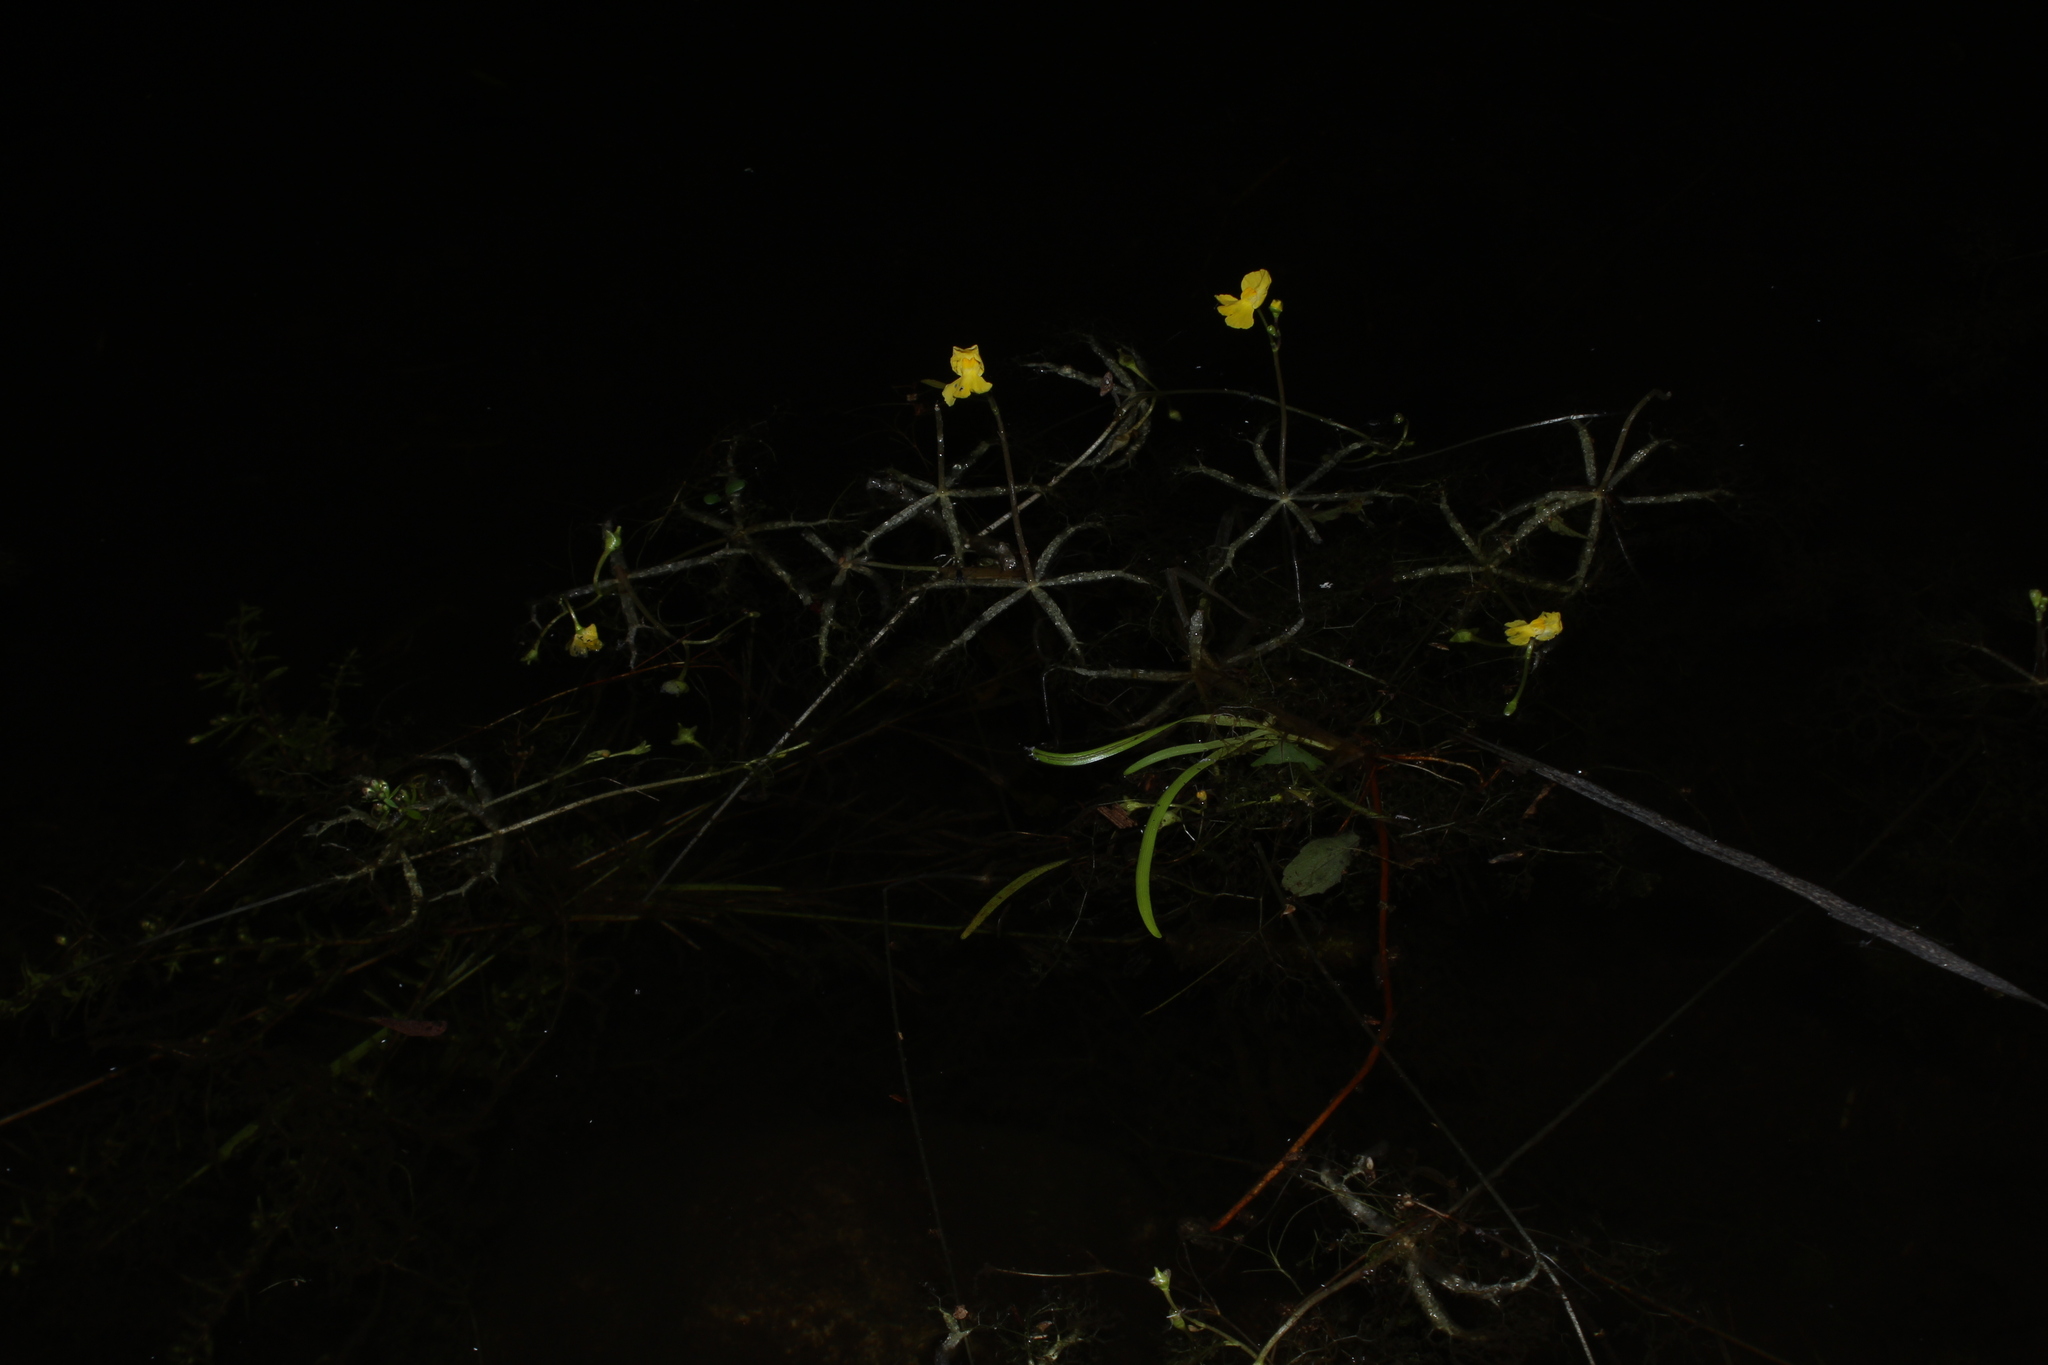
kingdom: Plantae
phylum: Tracheophyta
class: Magnoliopsida
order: Lamiales
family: Lentibulariaceae
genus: Utricularia
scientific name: Utricularia radiata
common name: Floating bladderwort
